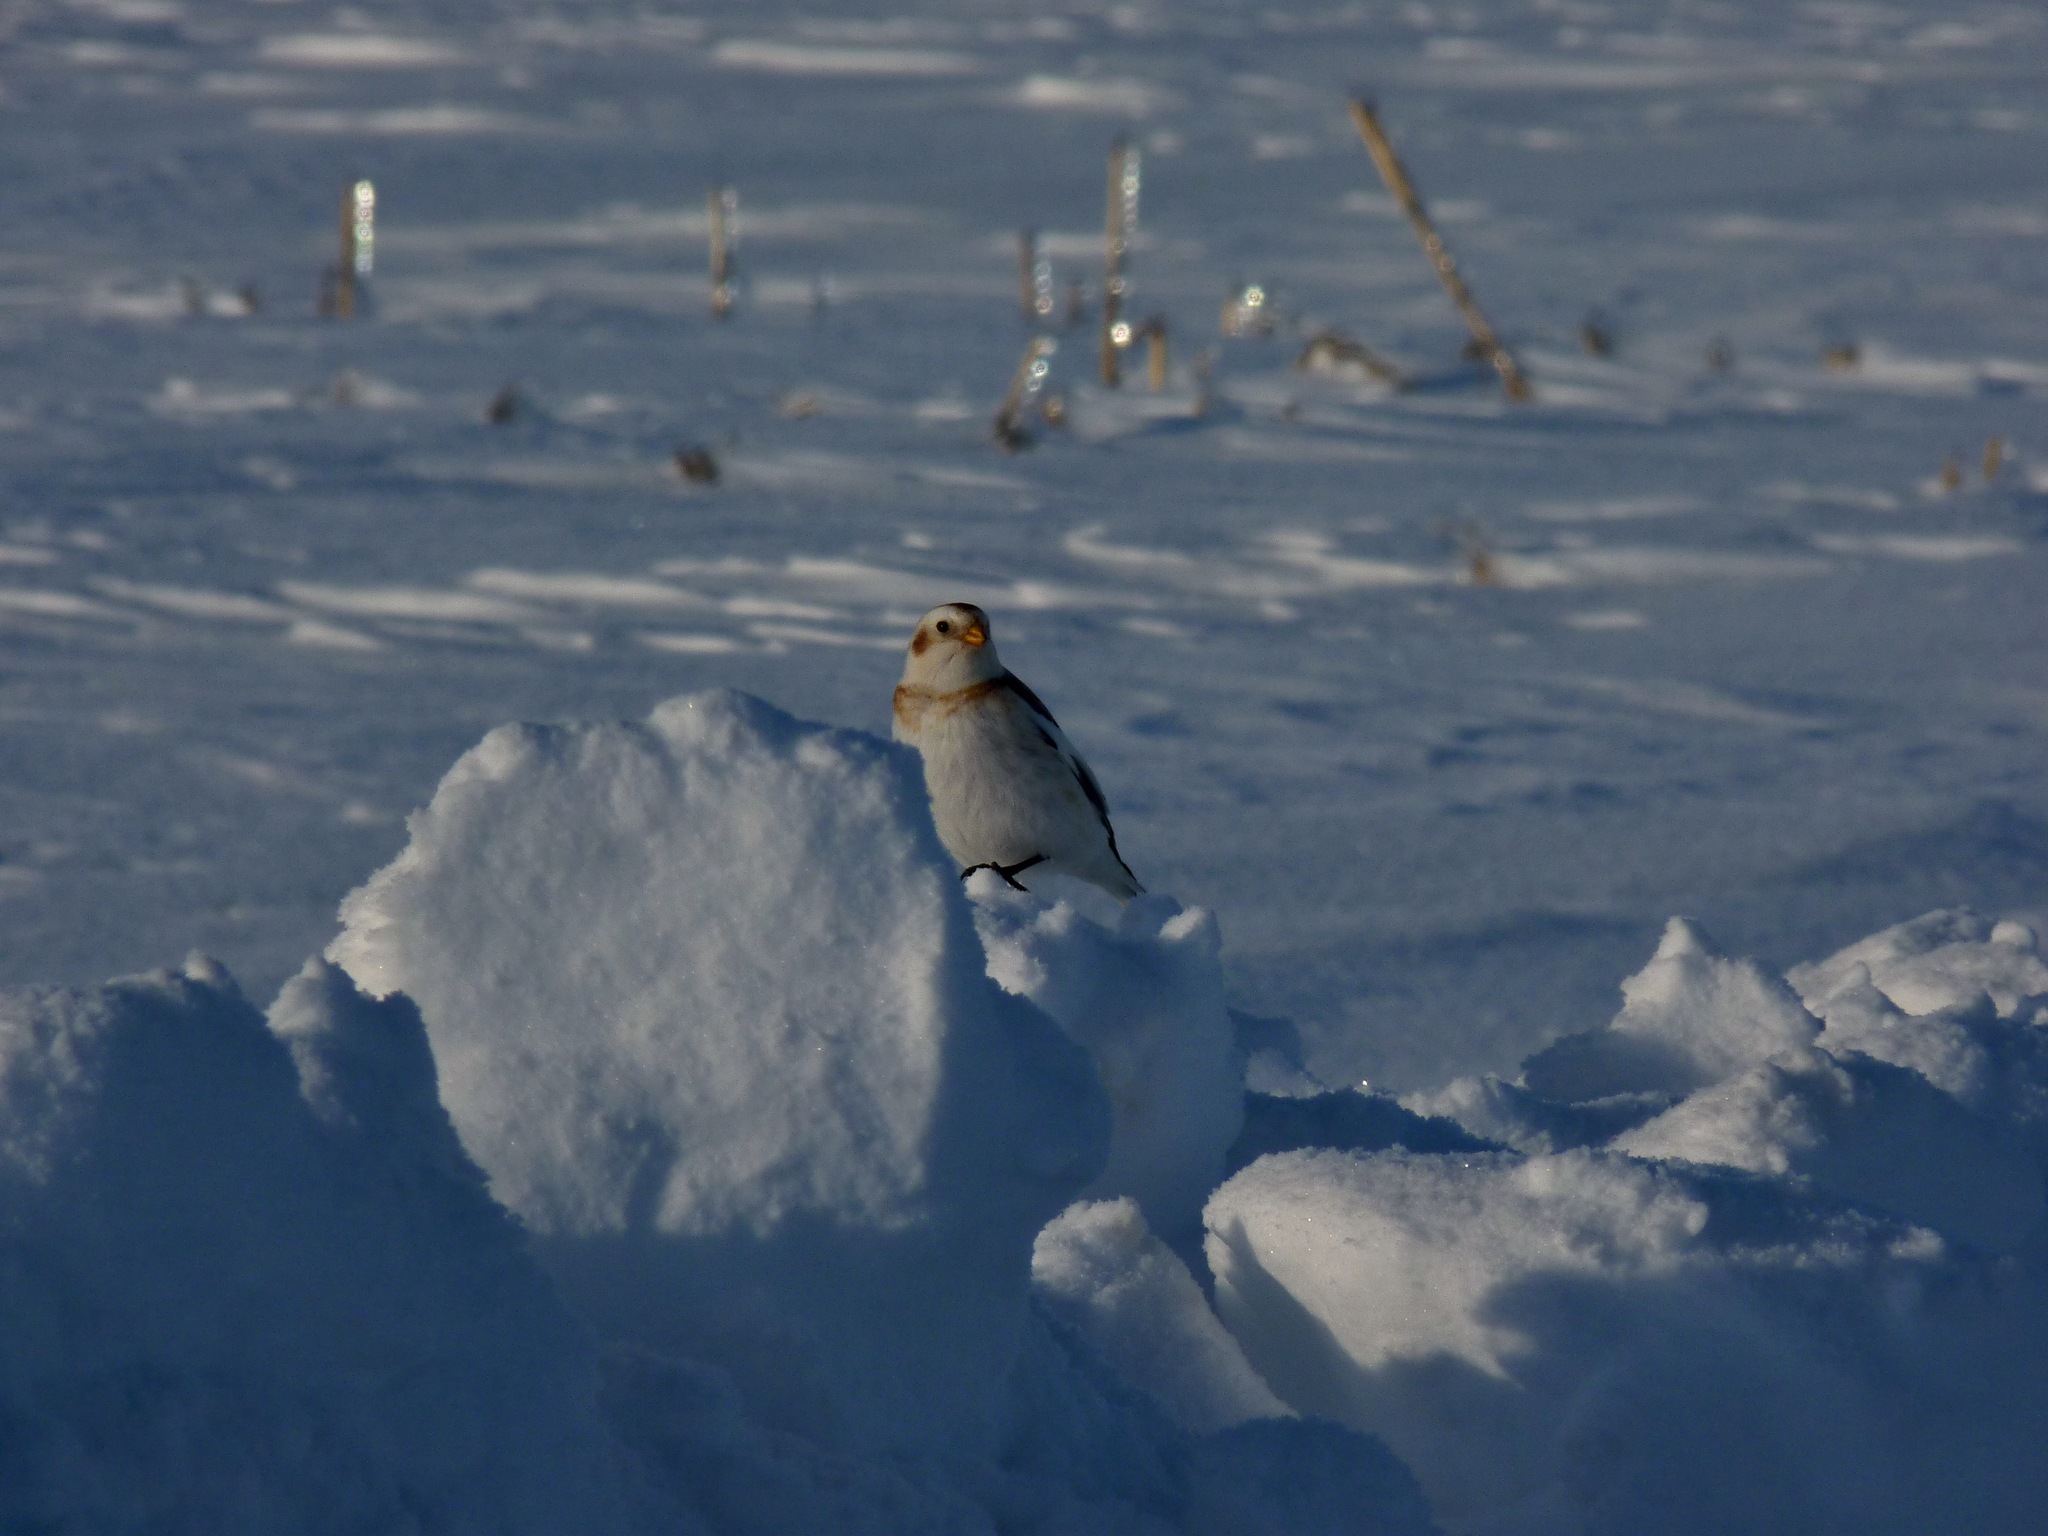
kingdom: Animalia
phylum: Chordata
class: Aves
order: Passeriformes
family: Calcariidae
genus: Plectrophenax
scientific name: Plectrophenax nivalis
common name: Snow bunting
